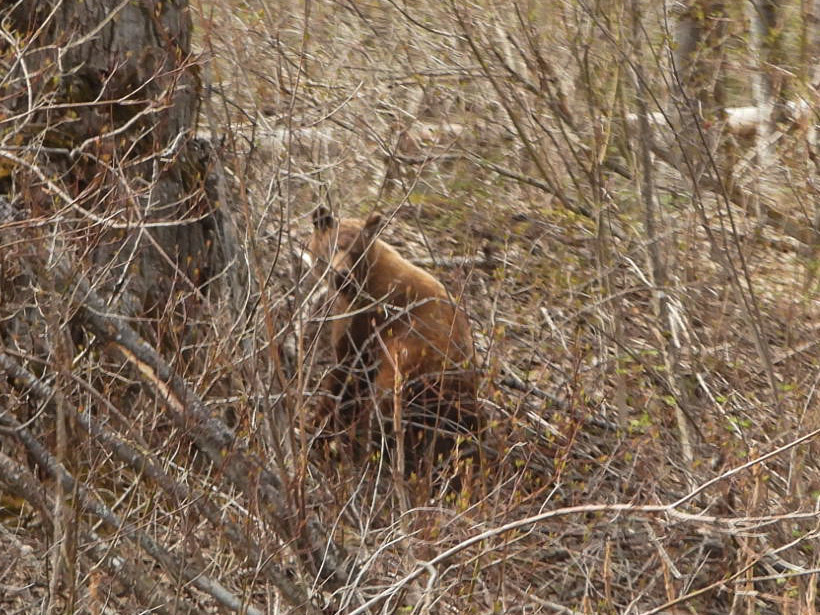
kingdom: Animalia
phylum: Chordata
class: Mammalia
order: Carnivora
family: Ursidae
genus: Ursus
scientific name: Ursus americanus
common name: American black bear
